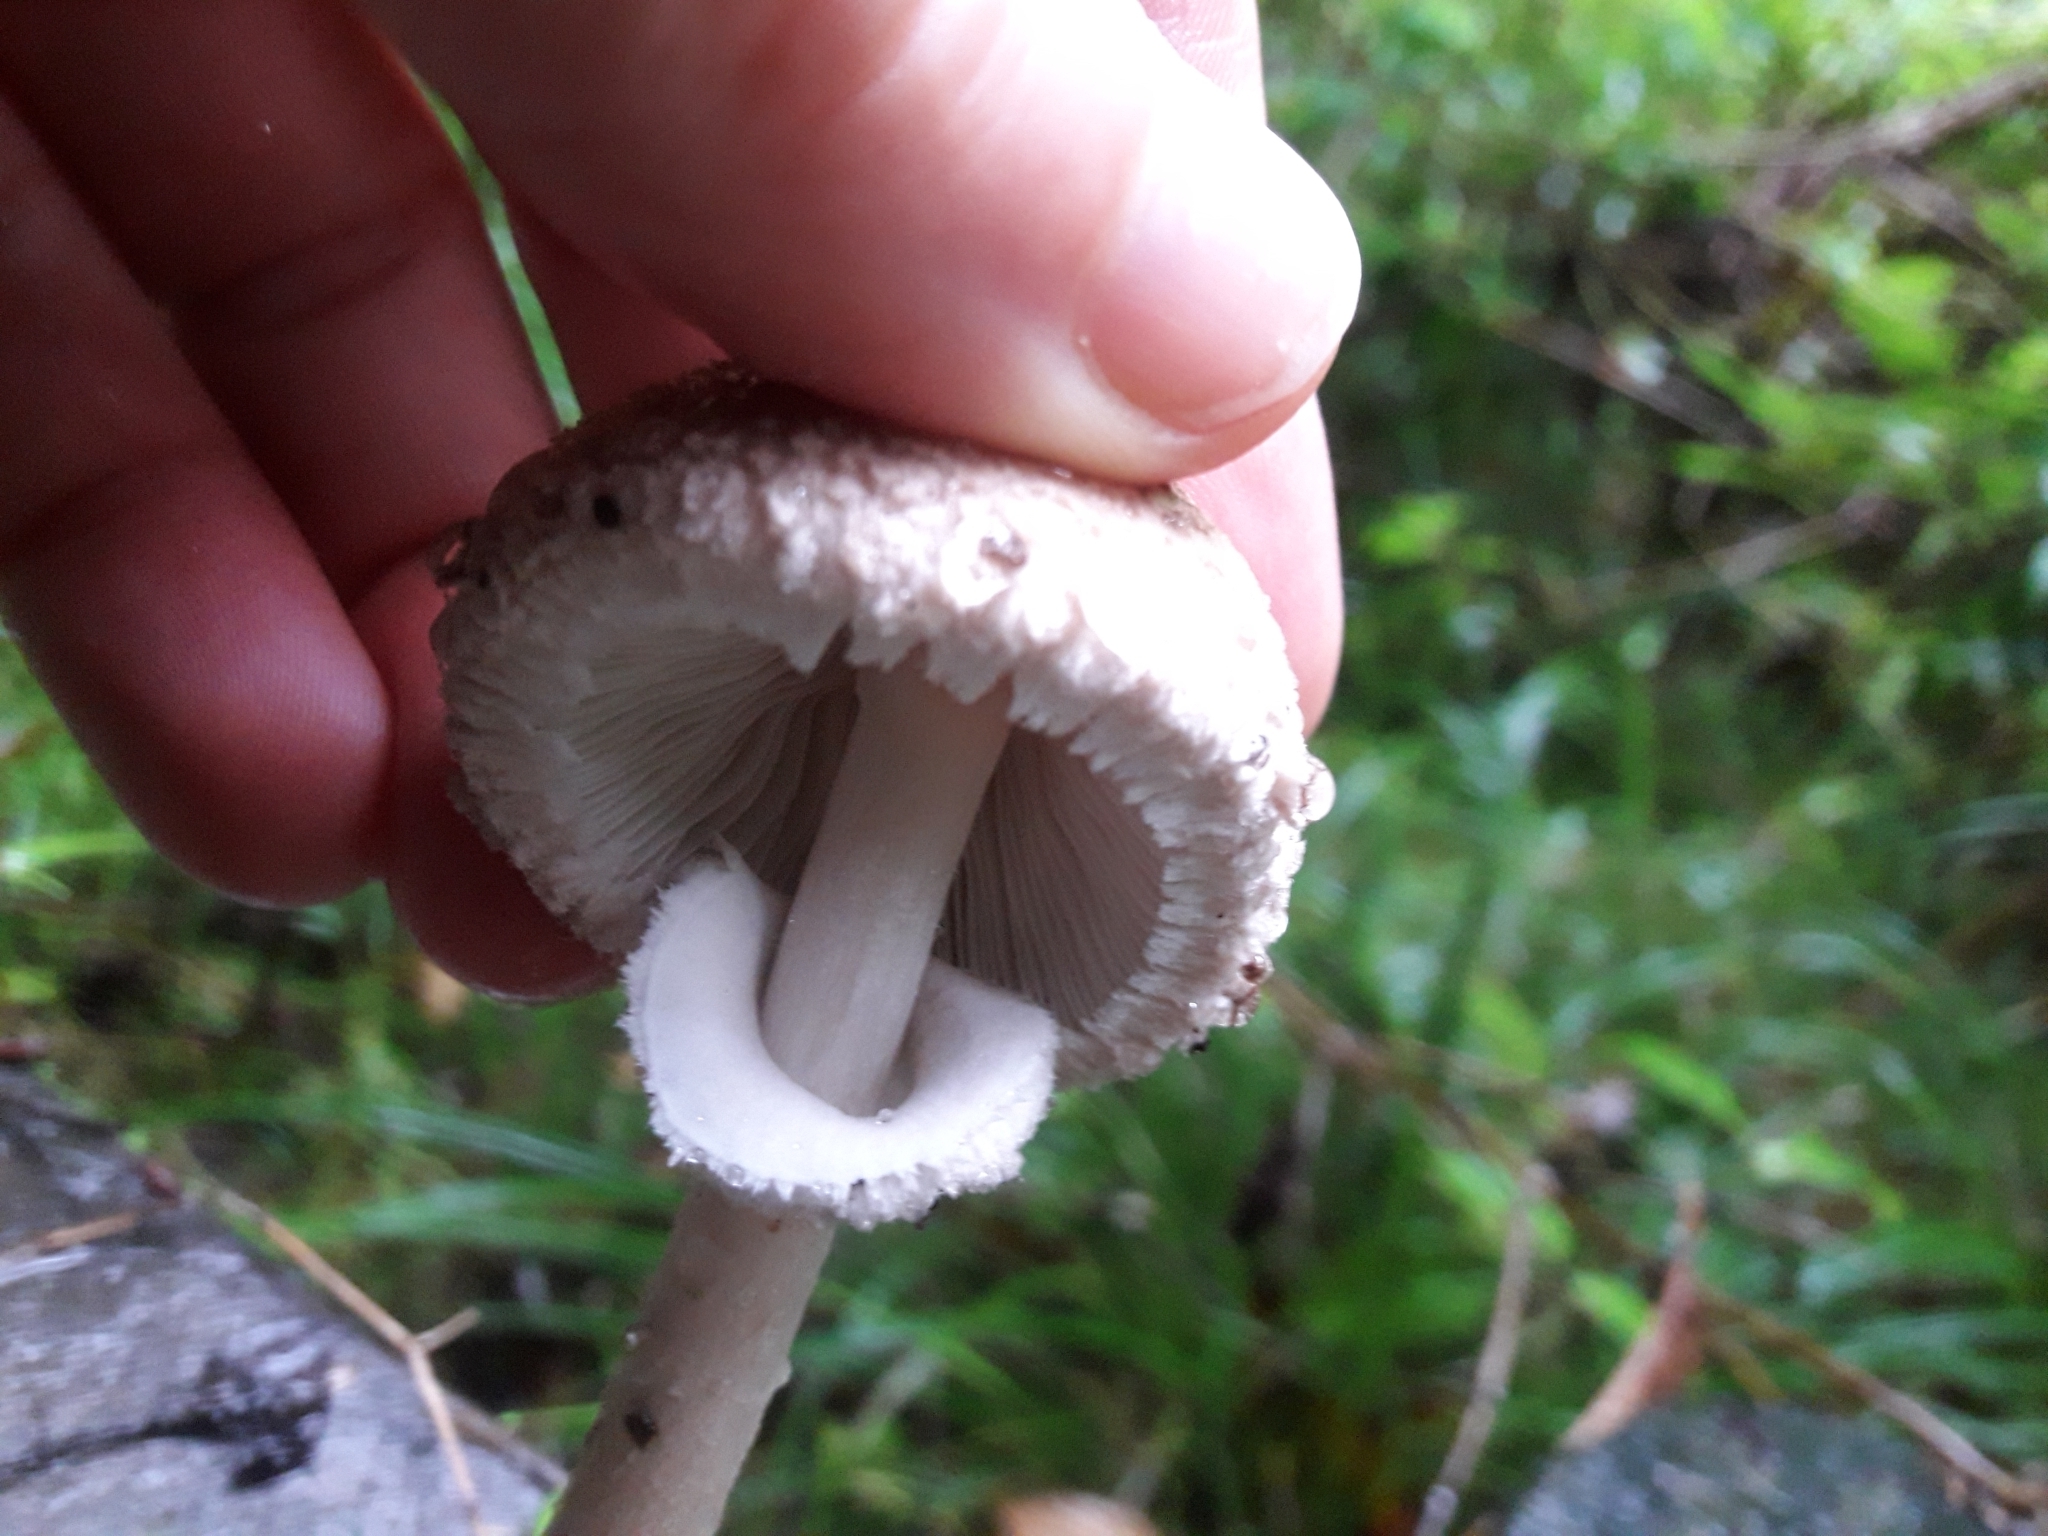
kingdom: Fungi
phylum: Basidiomycota
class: Agaricomycetes
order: Agaricales
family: Agaricaceae
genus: Macrolepiota
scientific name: Macrolepiota clelandii
